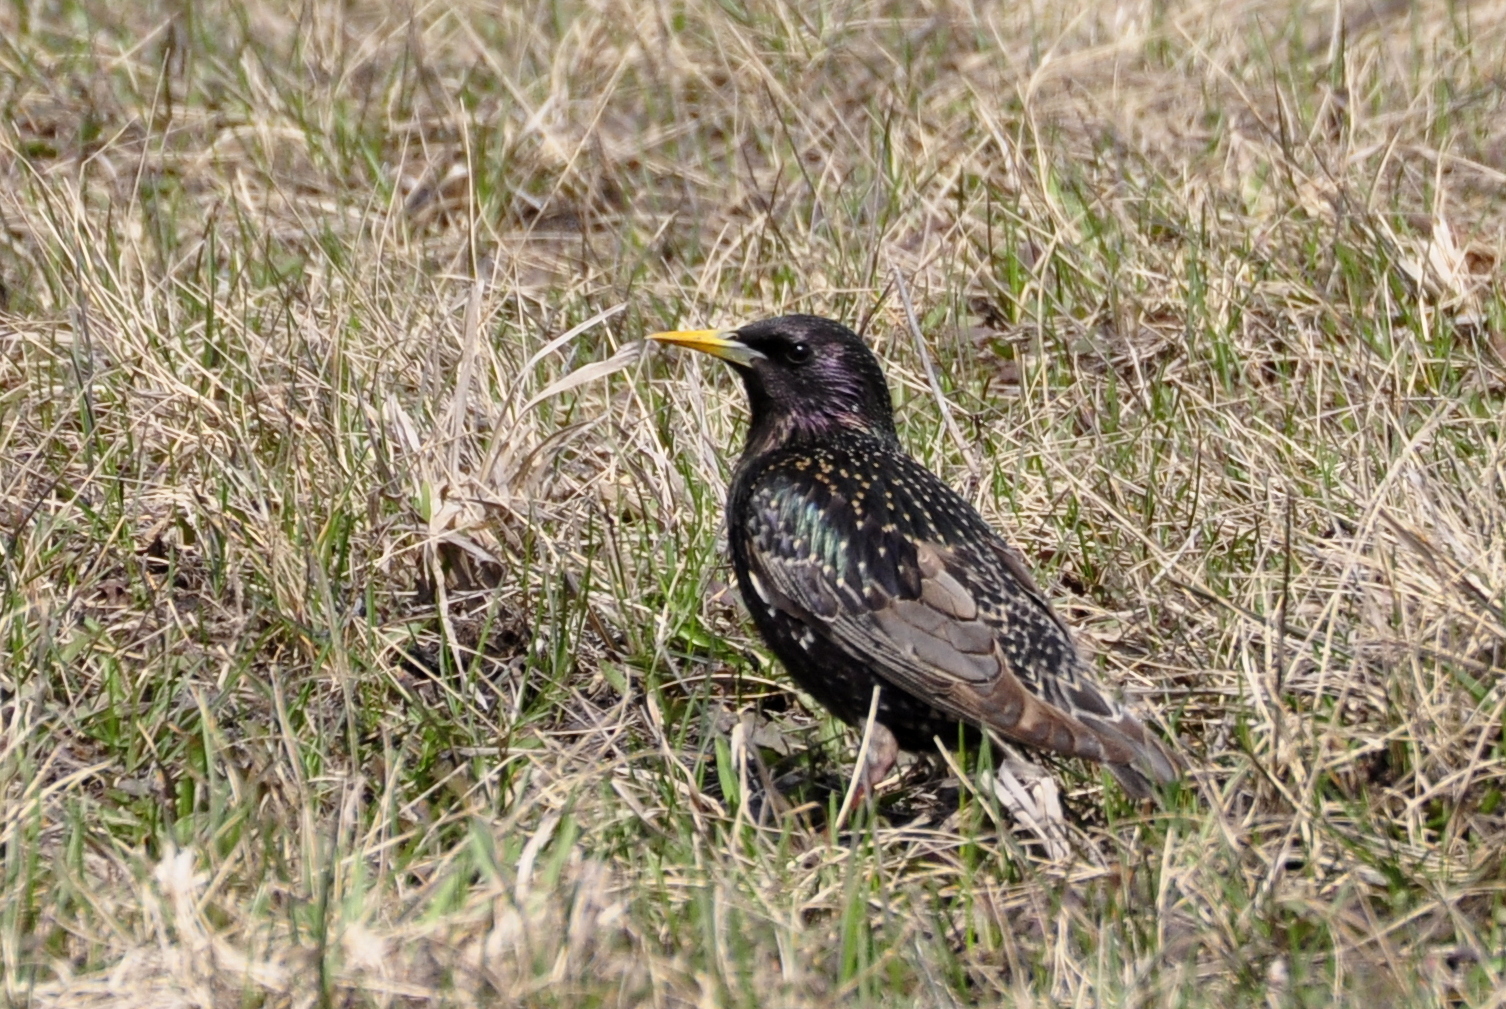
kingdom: Animalia
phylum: Chordata
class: Aves
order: Passeriformes
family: Sturnidae
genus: Sturnus
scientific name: Sturnus vulgaris
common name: Common starling
